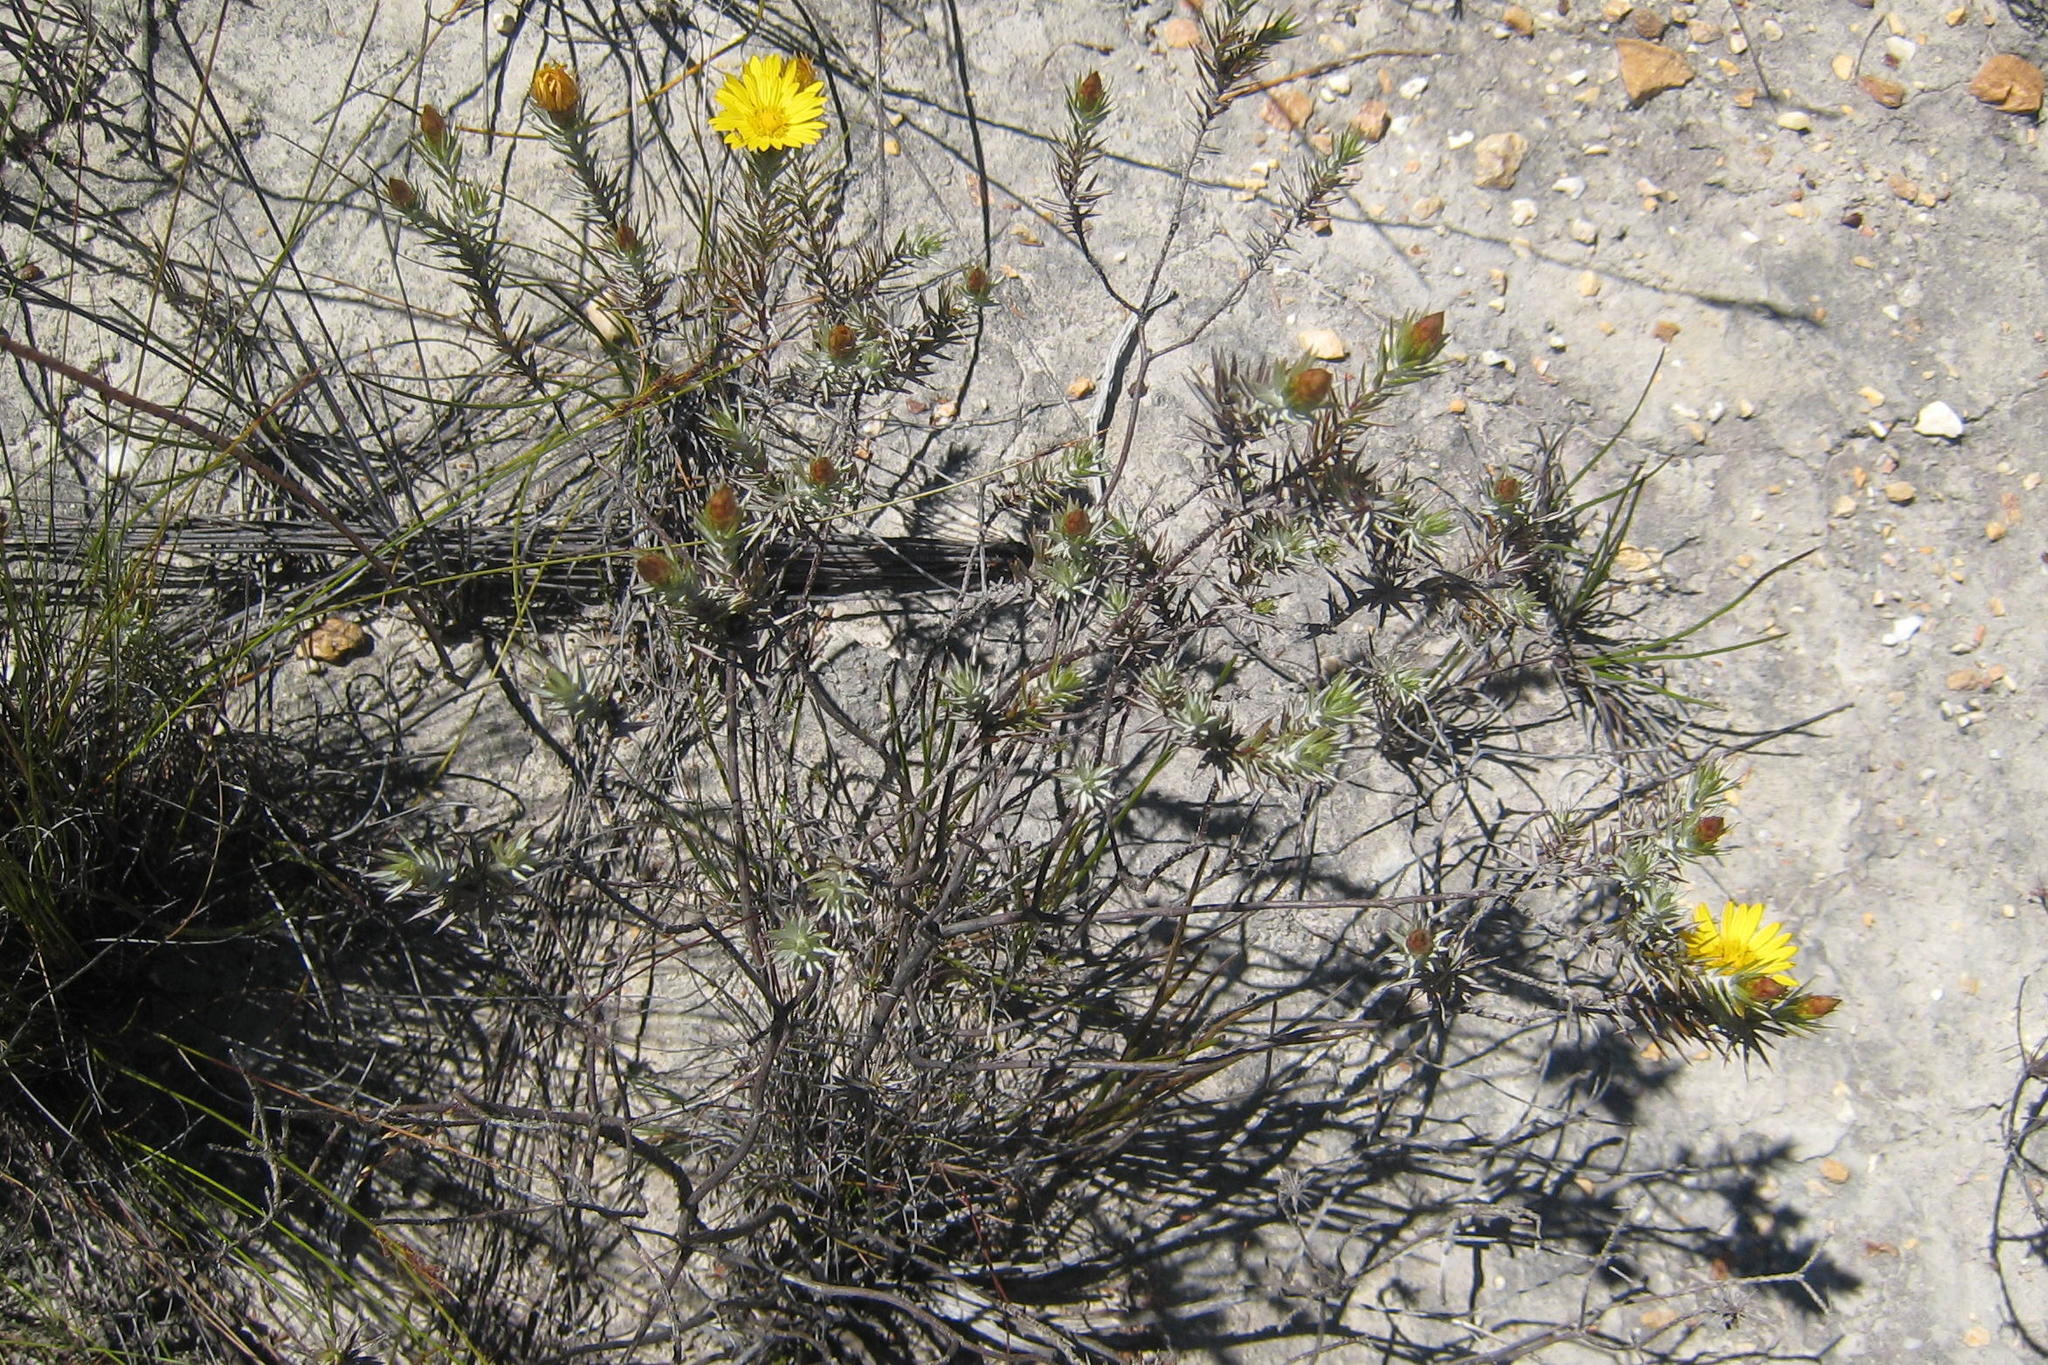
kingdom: Plantae
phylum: Tracheophyta
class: Magnoliopsida
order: Asterales
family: Asteraceae
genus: Oedera
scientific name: Oedera pungens
